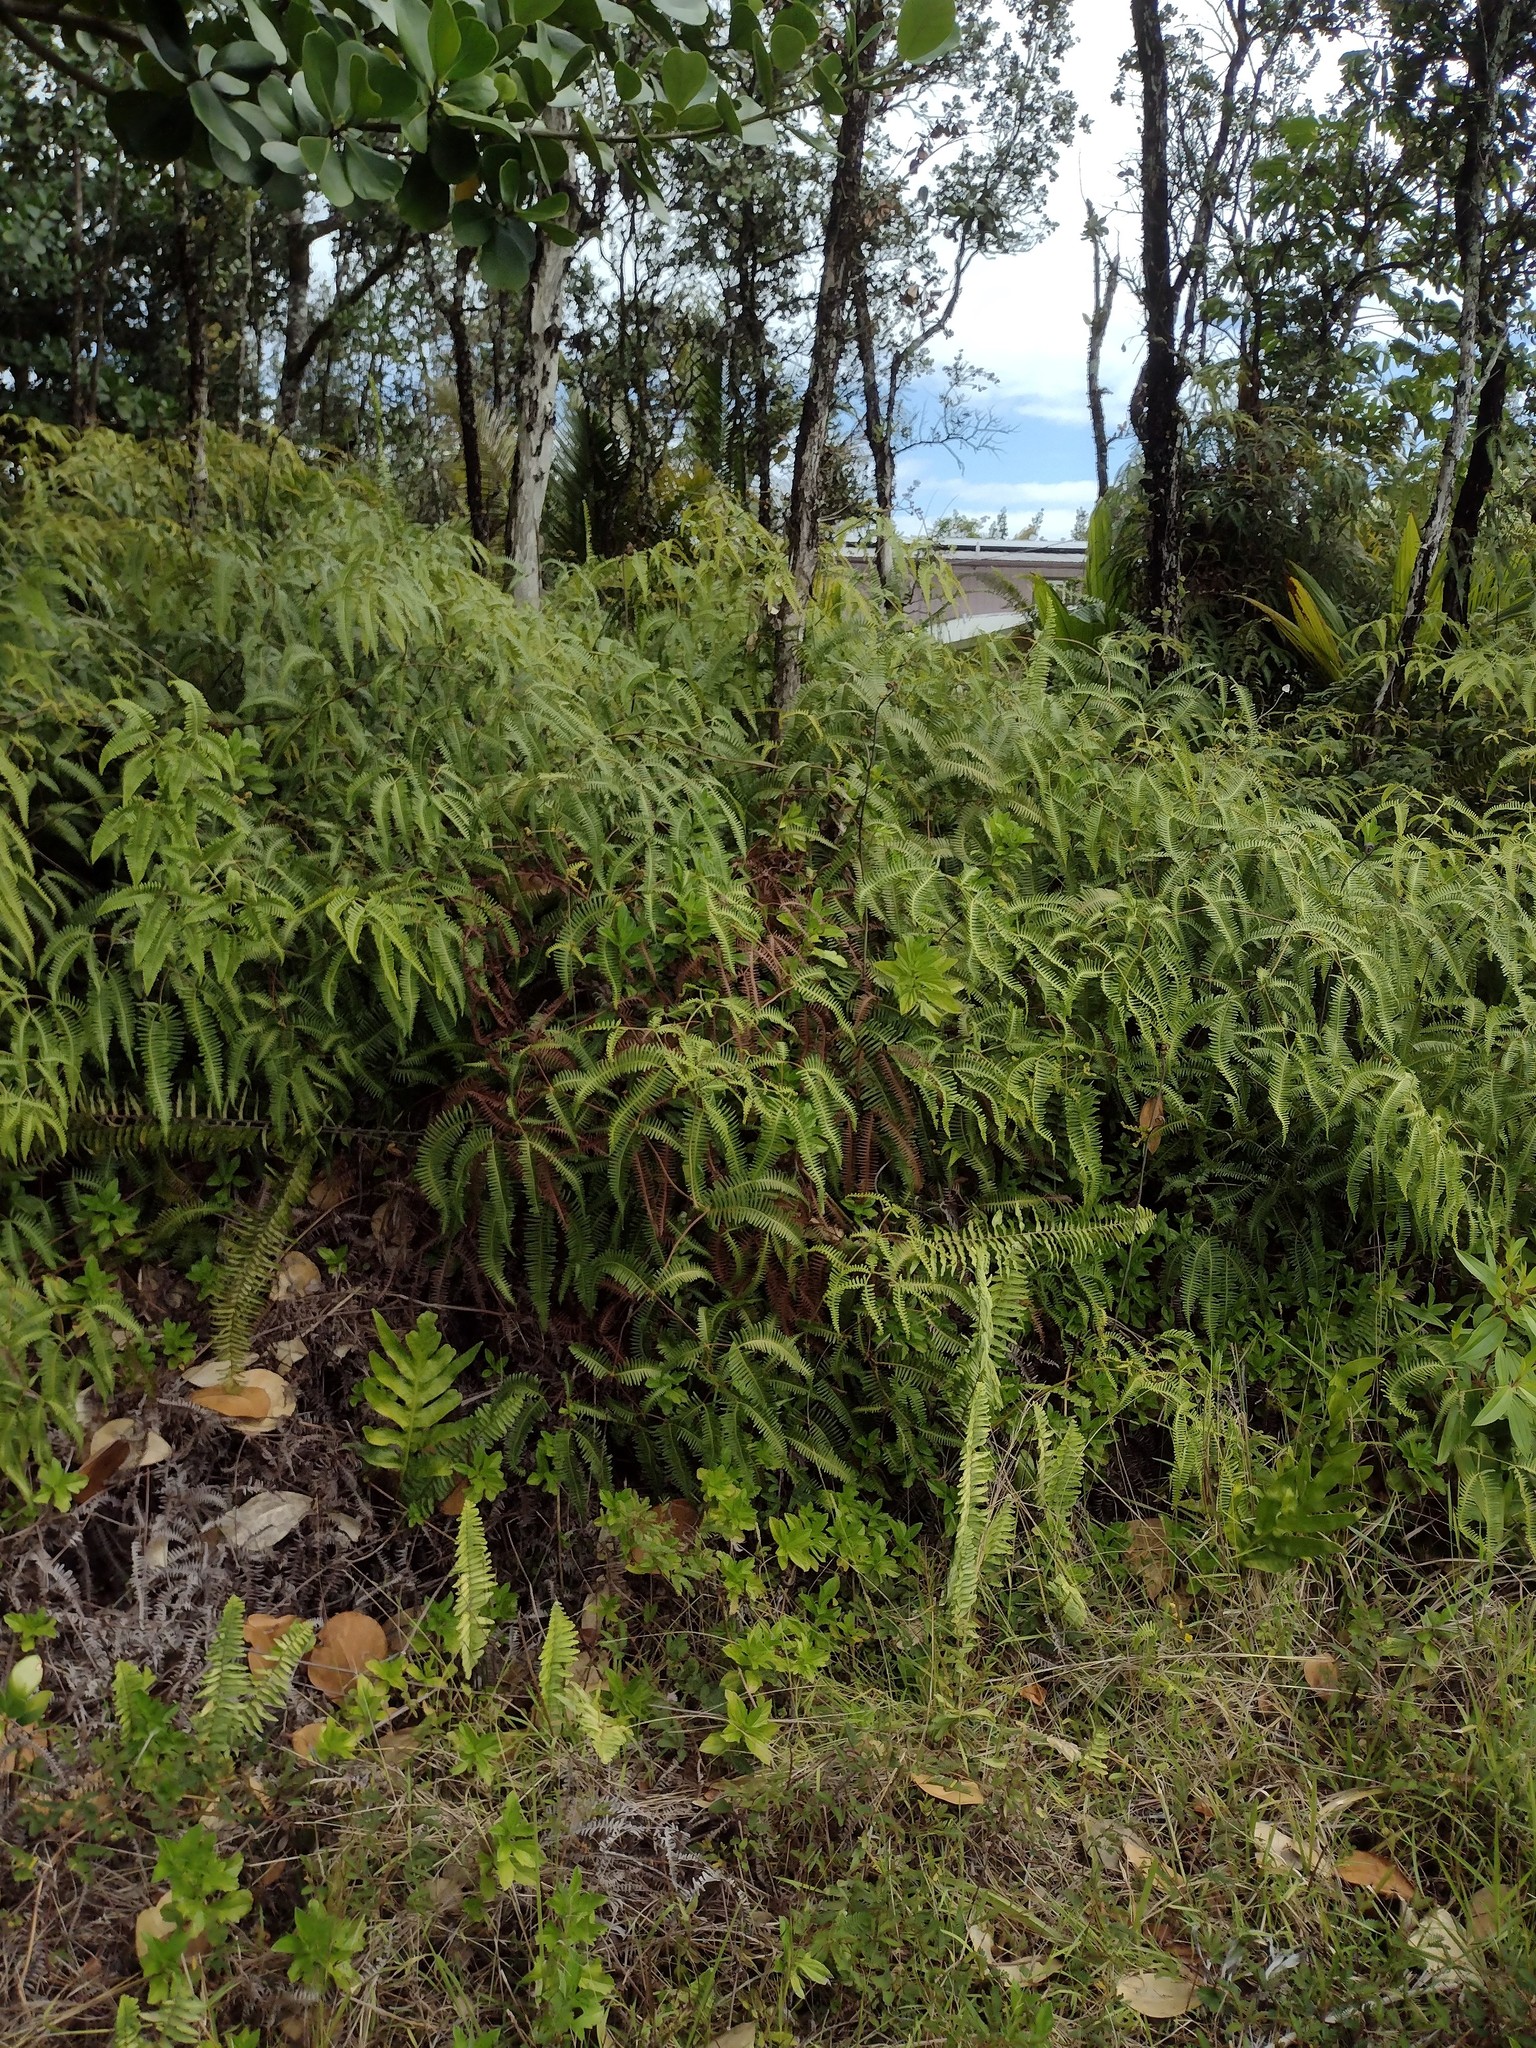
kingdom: Plantae
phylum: Tracheophyta
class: Polypodiopsida
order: Gleicheniales
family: Gleicheniaceae
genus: Dicranopteris
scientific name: Dicranopteris linearis
